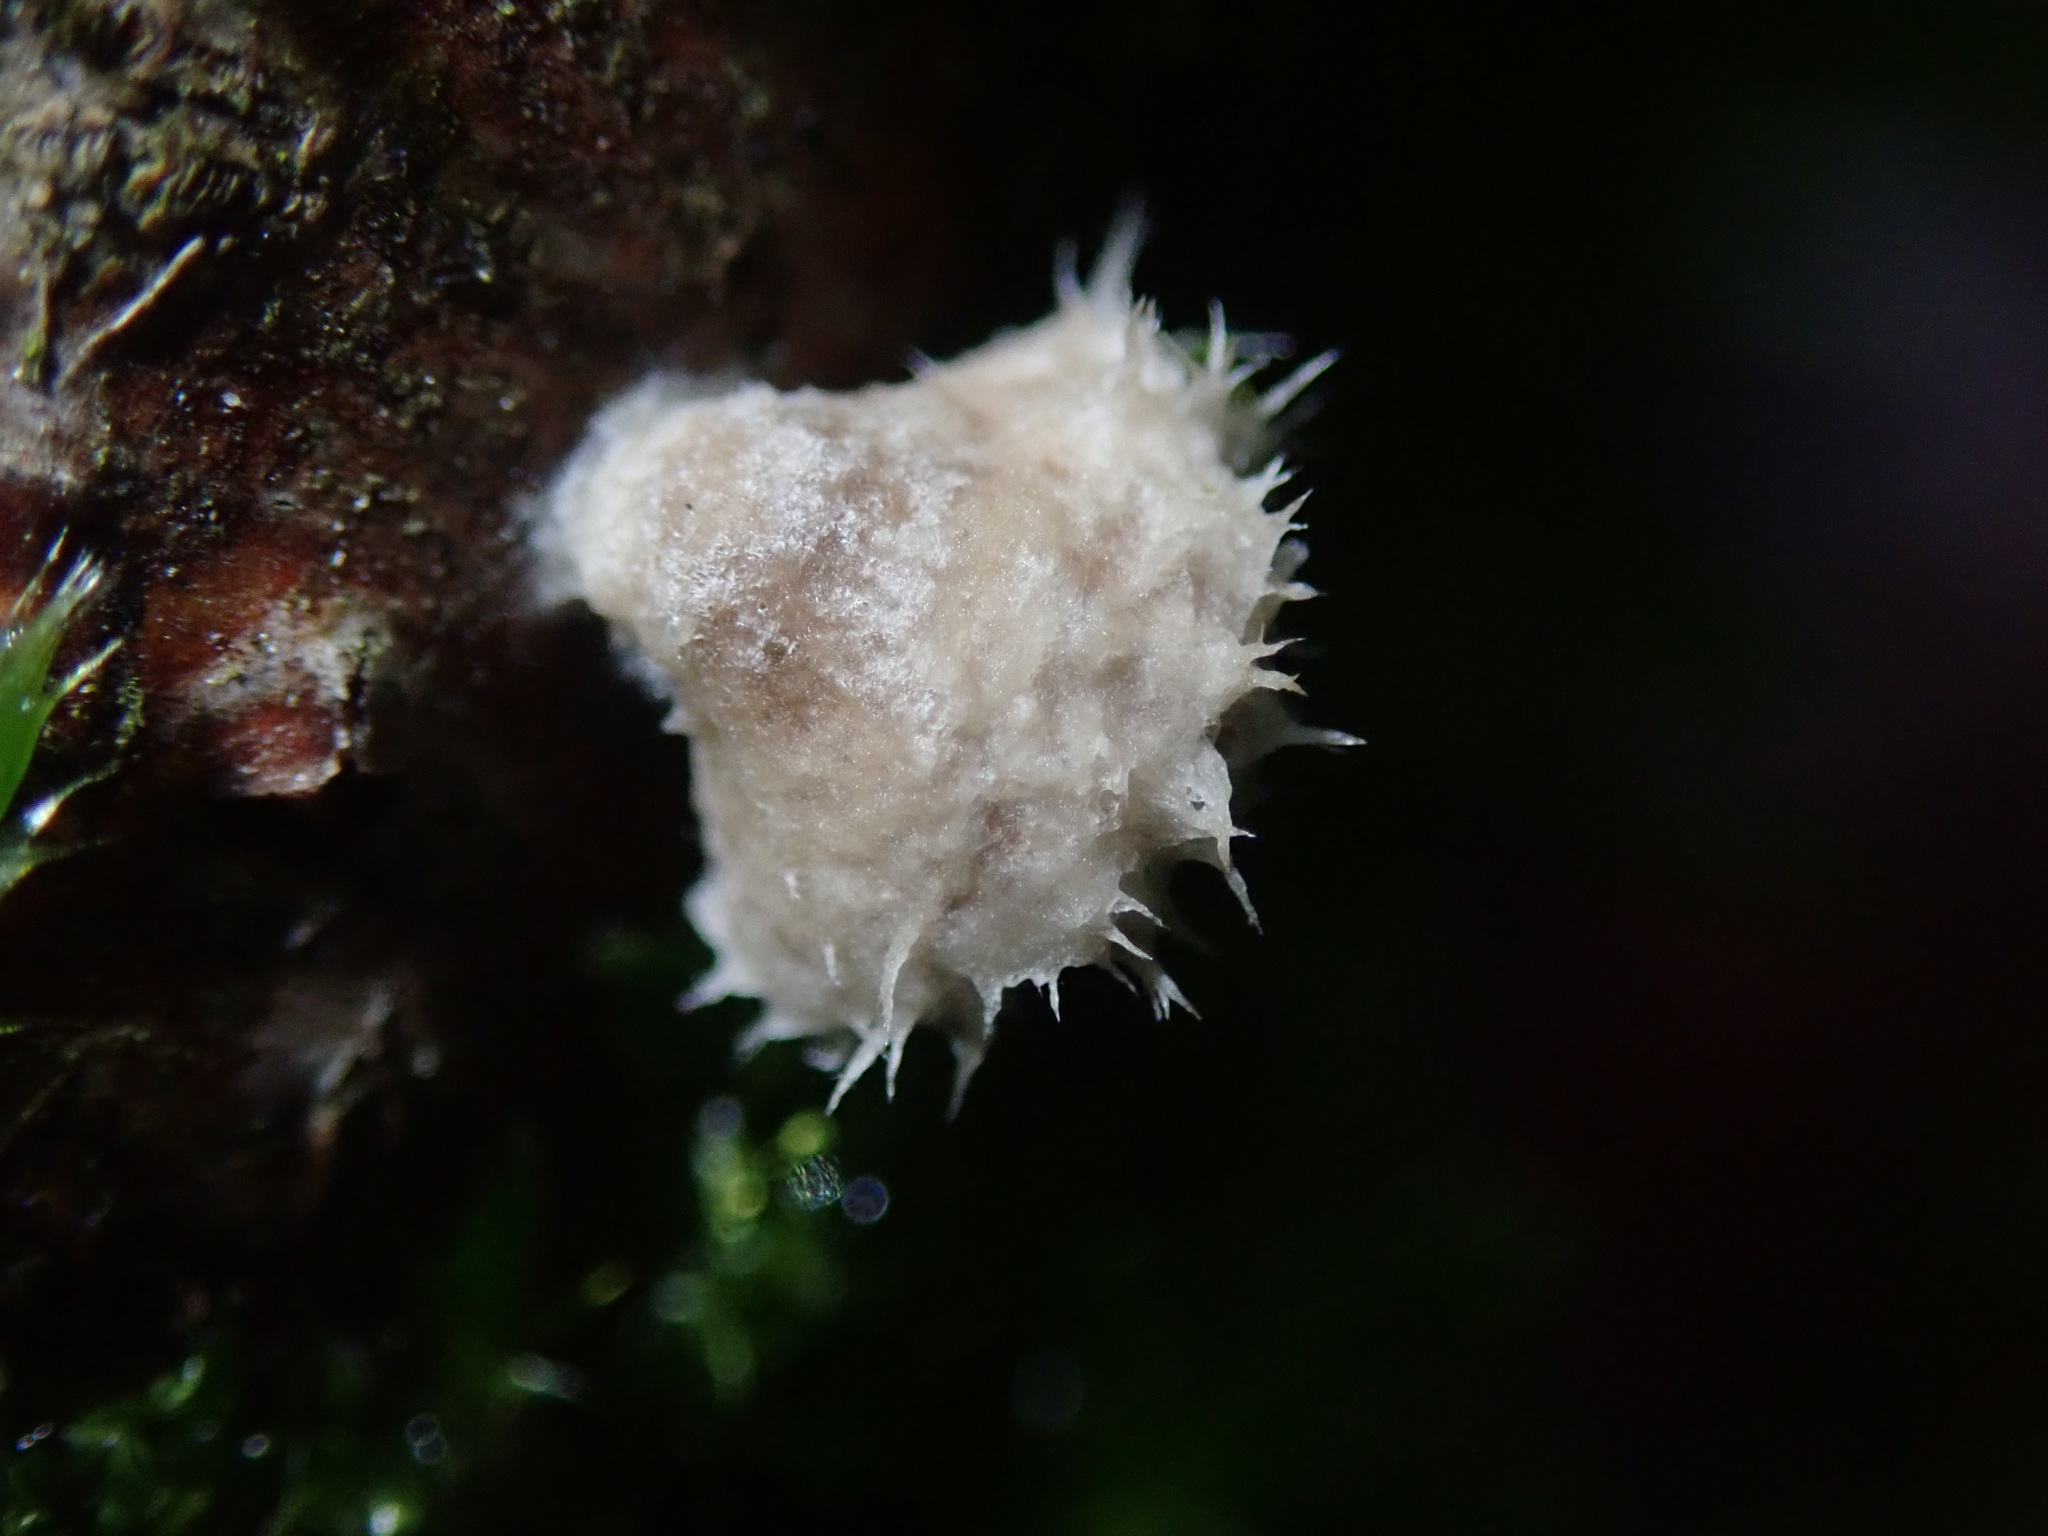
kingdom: Fungi
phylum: Basidiomycota
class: Agaricomycetes
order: Agaricales
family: Schizophyllaceae
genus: Schizophyllum
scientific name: Schizophyllum commune
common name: Common porecrust
